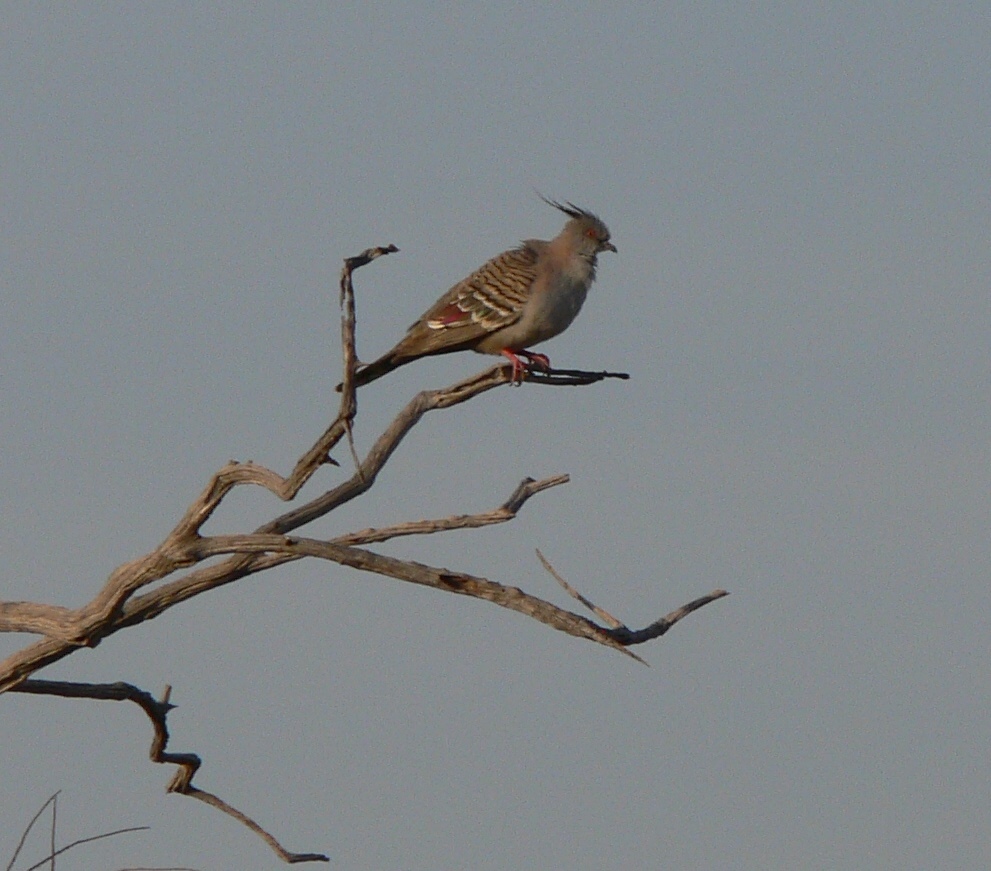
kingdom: Animalia
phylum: Chordata
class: Aves
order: Columbiformes
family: Columbidae
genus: Ocyphaps
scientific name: Ocyphaps lophotes
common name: Crested pigeon
